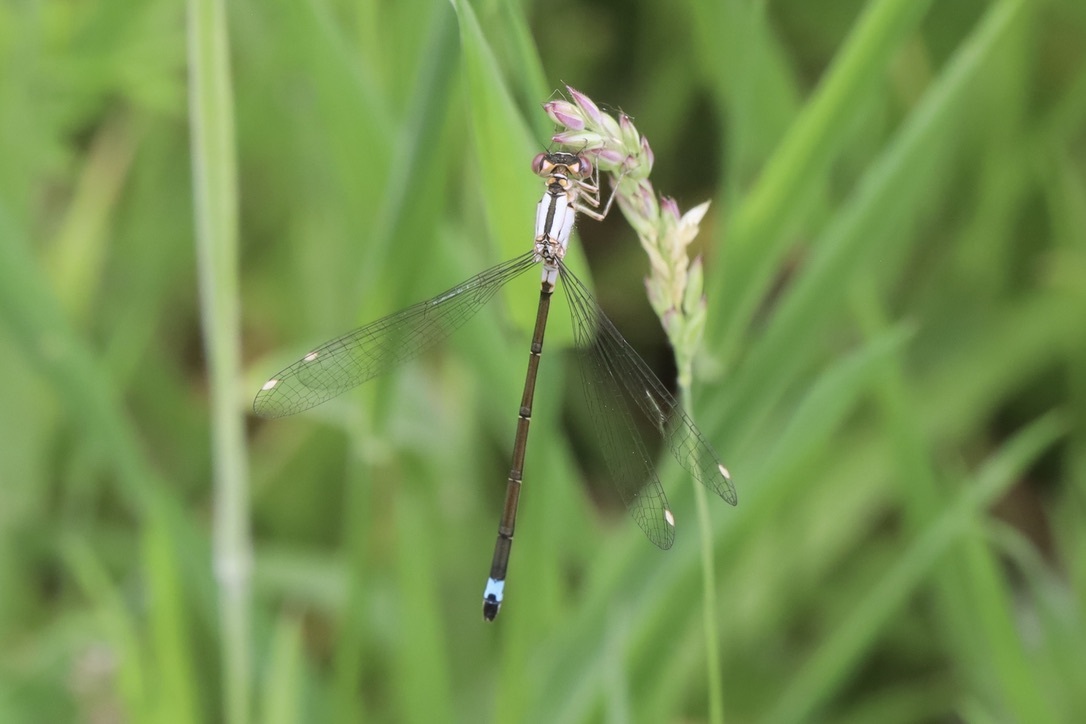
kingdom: Animalia
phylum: Arthropoda
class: Insecta
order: Odonata
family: Coenagrionidae
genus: Ischnura
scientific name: Ischnura cervula
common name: Pacific forktail
